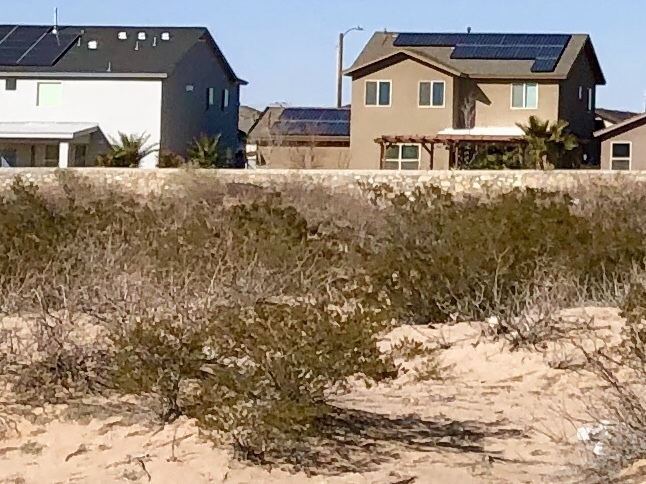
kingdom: Plantae
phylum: Tracheophyta
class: Magnoliopsida
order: Zygophyllales
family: Zygophyllaceae
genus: Larrea
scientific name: Larrea tridentata
